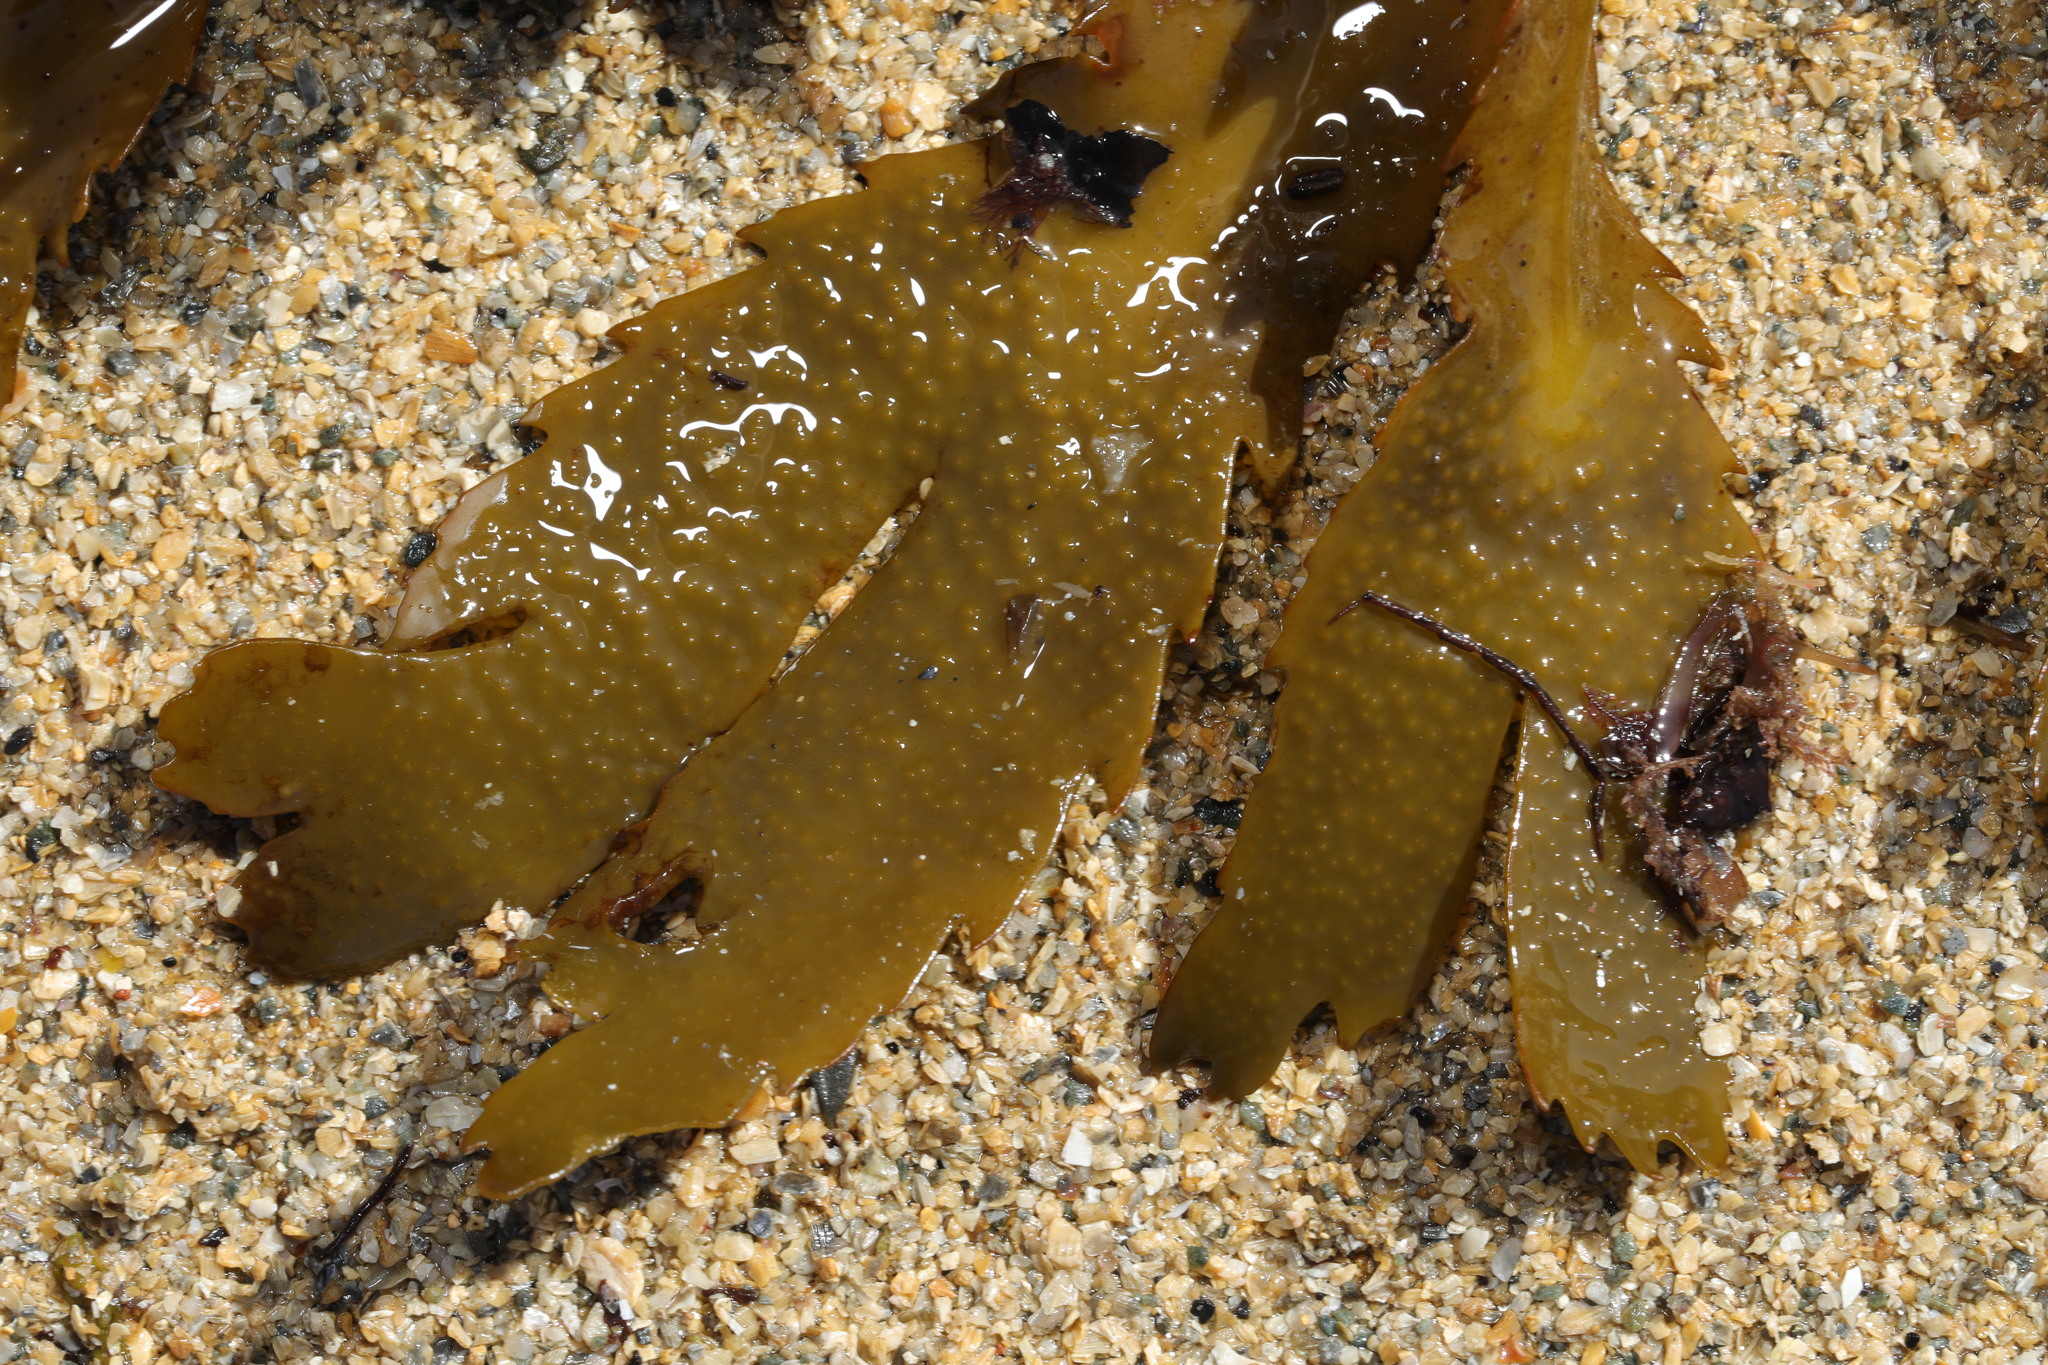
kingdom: Chromista
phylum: Ochrophyta
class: Phaeophyceae
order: Fucales
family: Fucaceae
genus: Fucus
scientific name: Fucus serratus
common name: Toothed wrack
